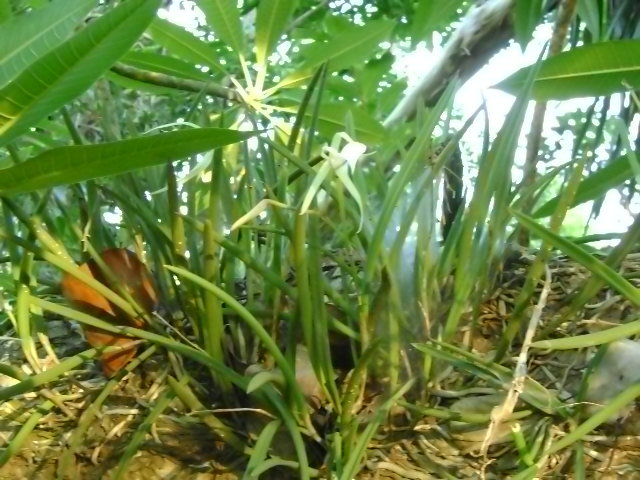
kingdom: Plantae
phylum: Tracheophyta
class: Liliopsida
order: Asparagales
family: Orchidaceae
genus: Brassavola
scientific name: Brassavola nodosa
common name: Lady of the night
